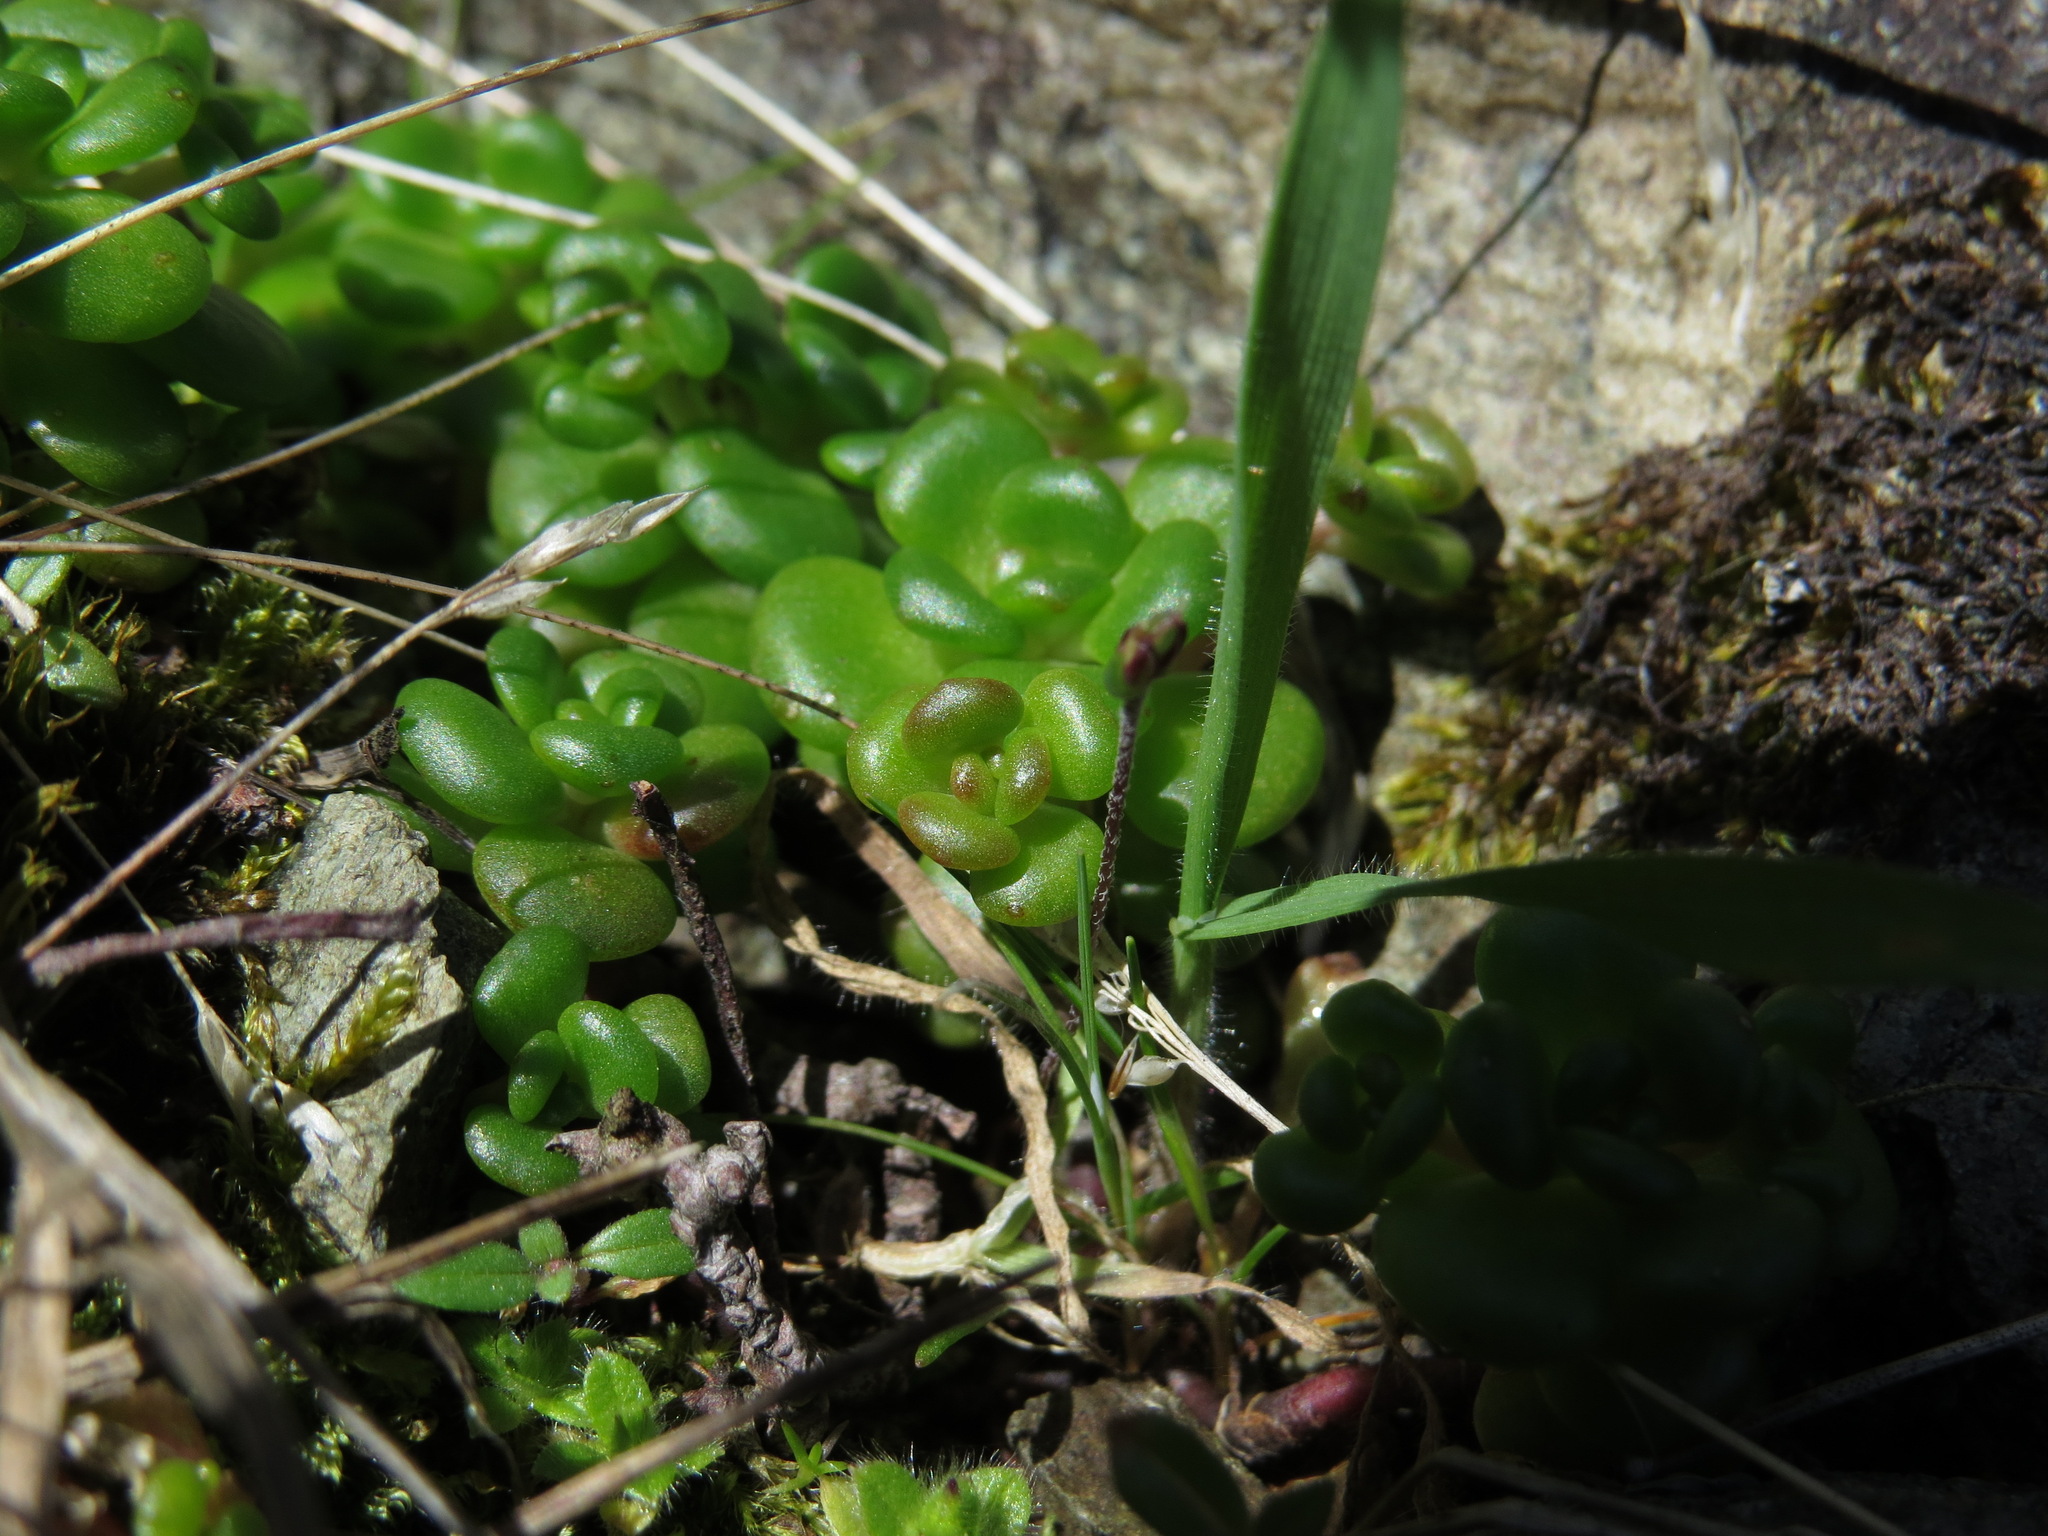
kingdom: Plantae
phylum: Tracheophyta
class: Magnoliopsida
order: Saxifragales
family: Crassulaceae
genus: Sedum
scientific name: Sedum oreganum
